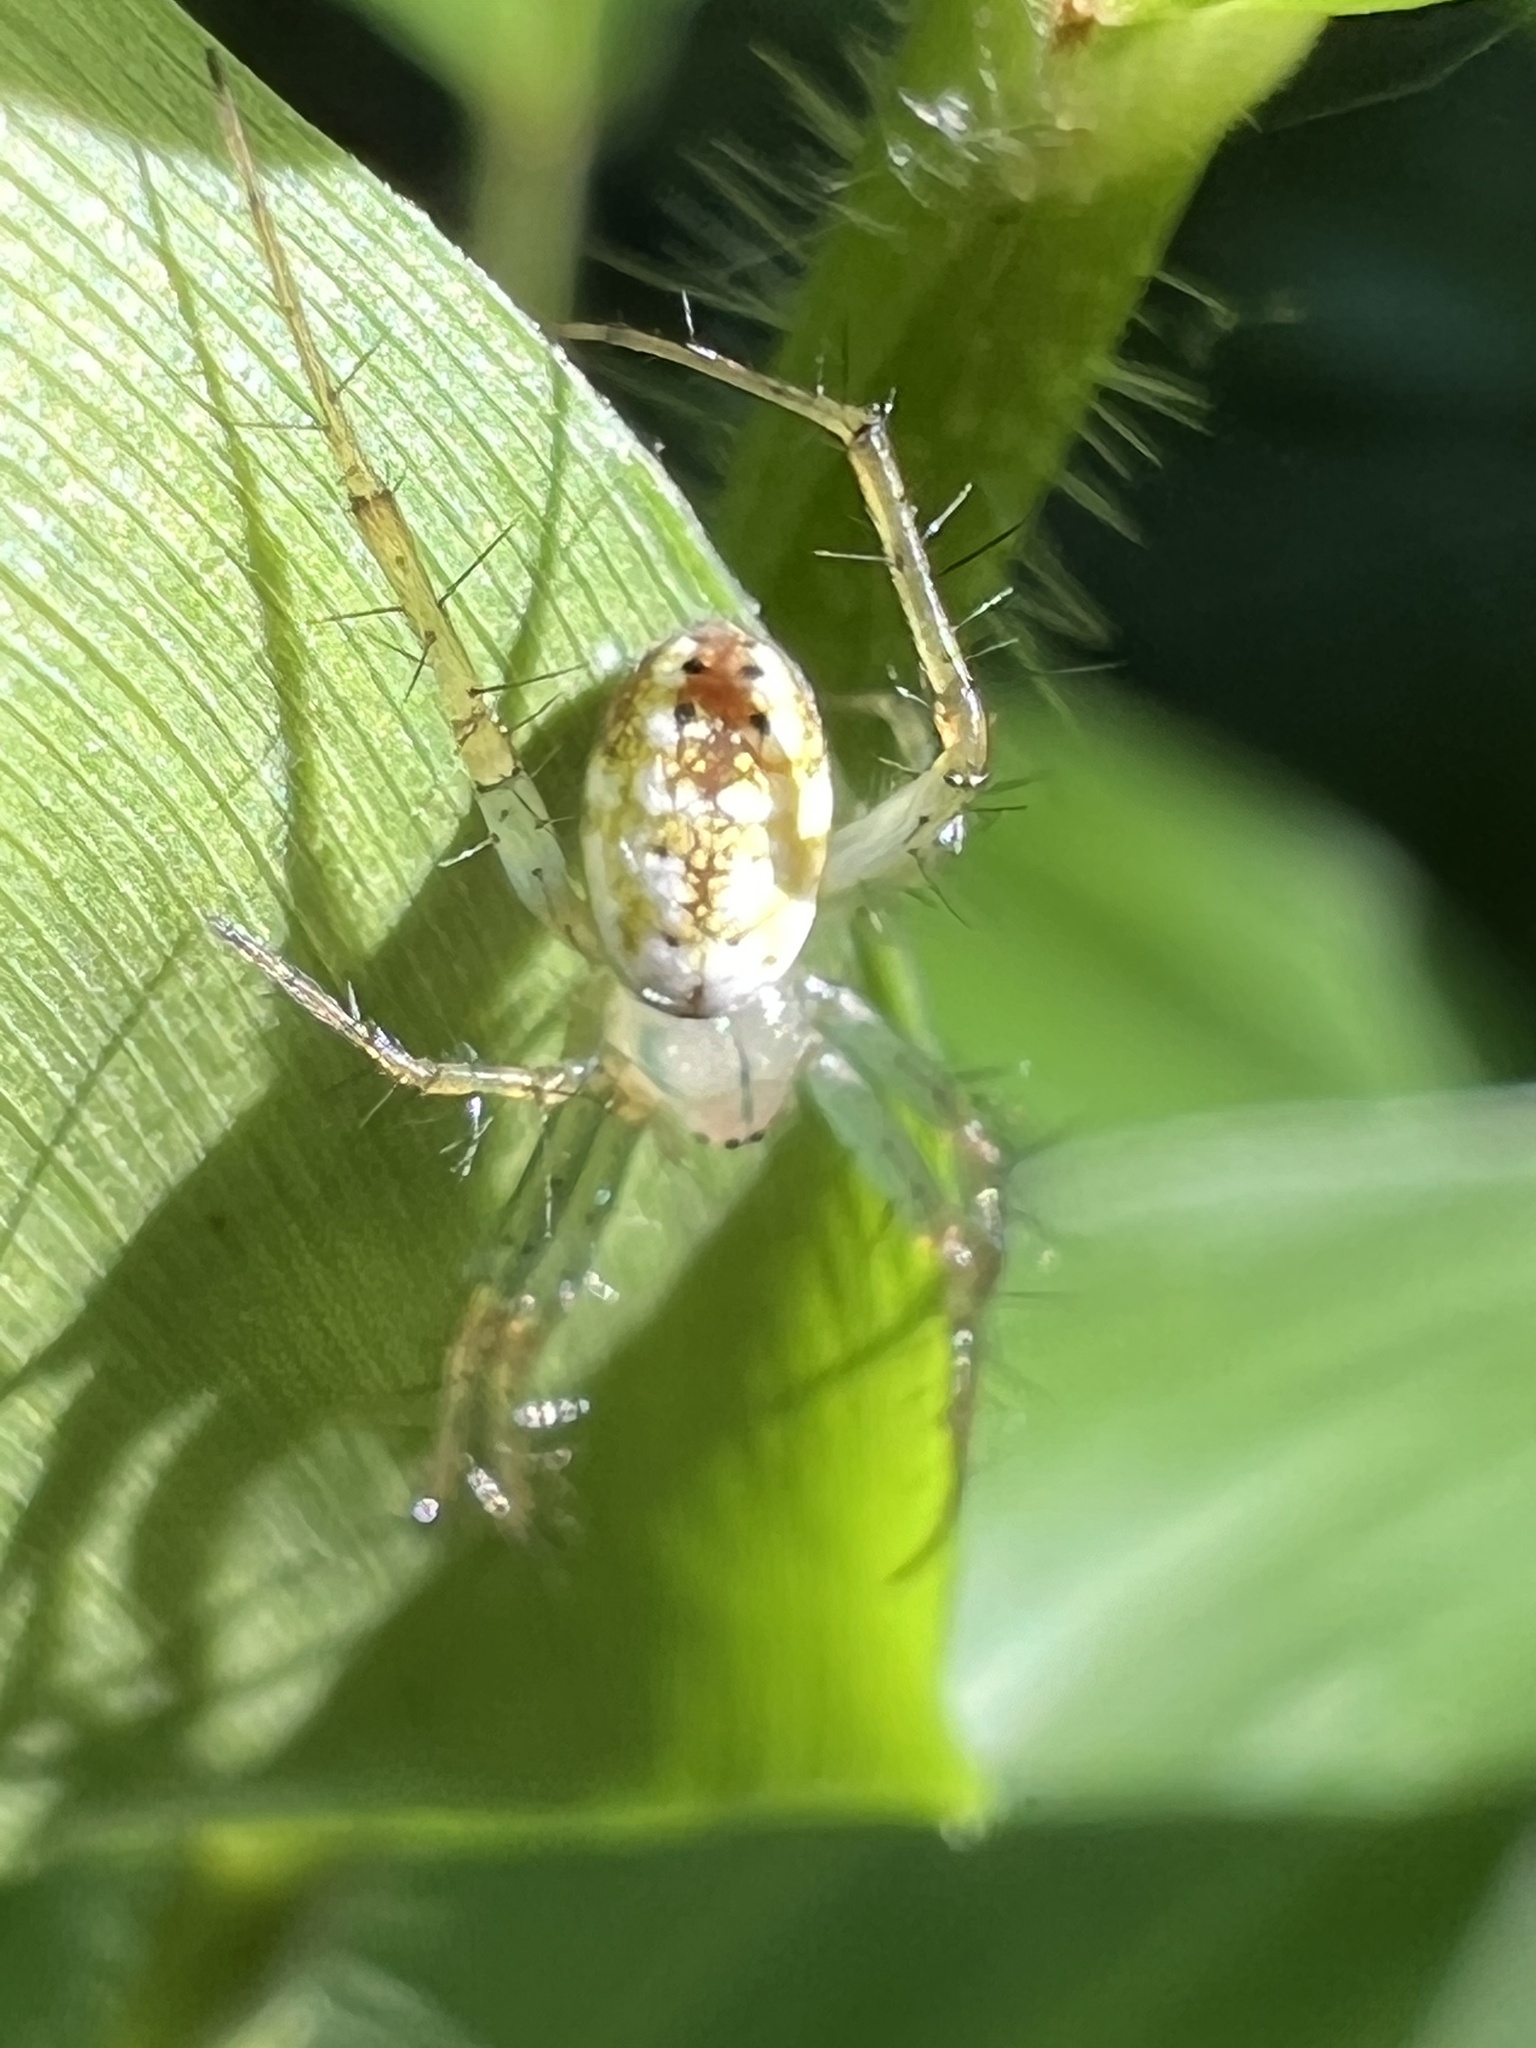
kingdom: Animalia
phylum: Arthropoda
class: Arachnida
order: Araneae
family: Araneidae
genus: Mangora
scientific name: Mangora maculata
